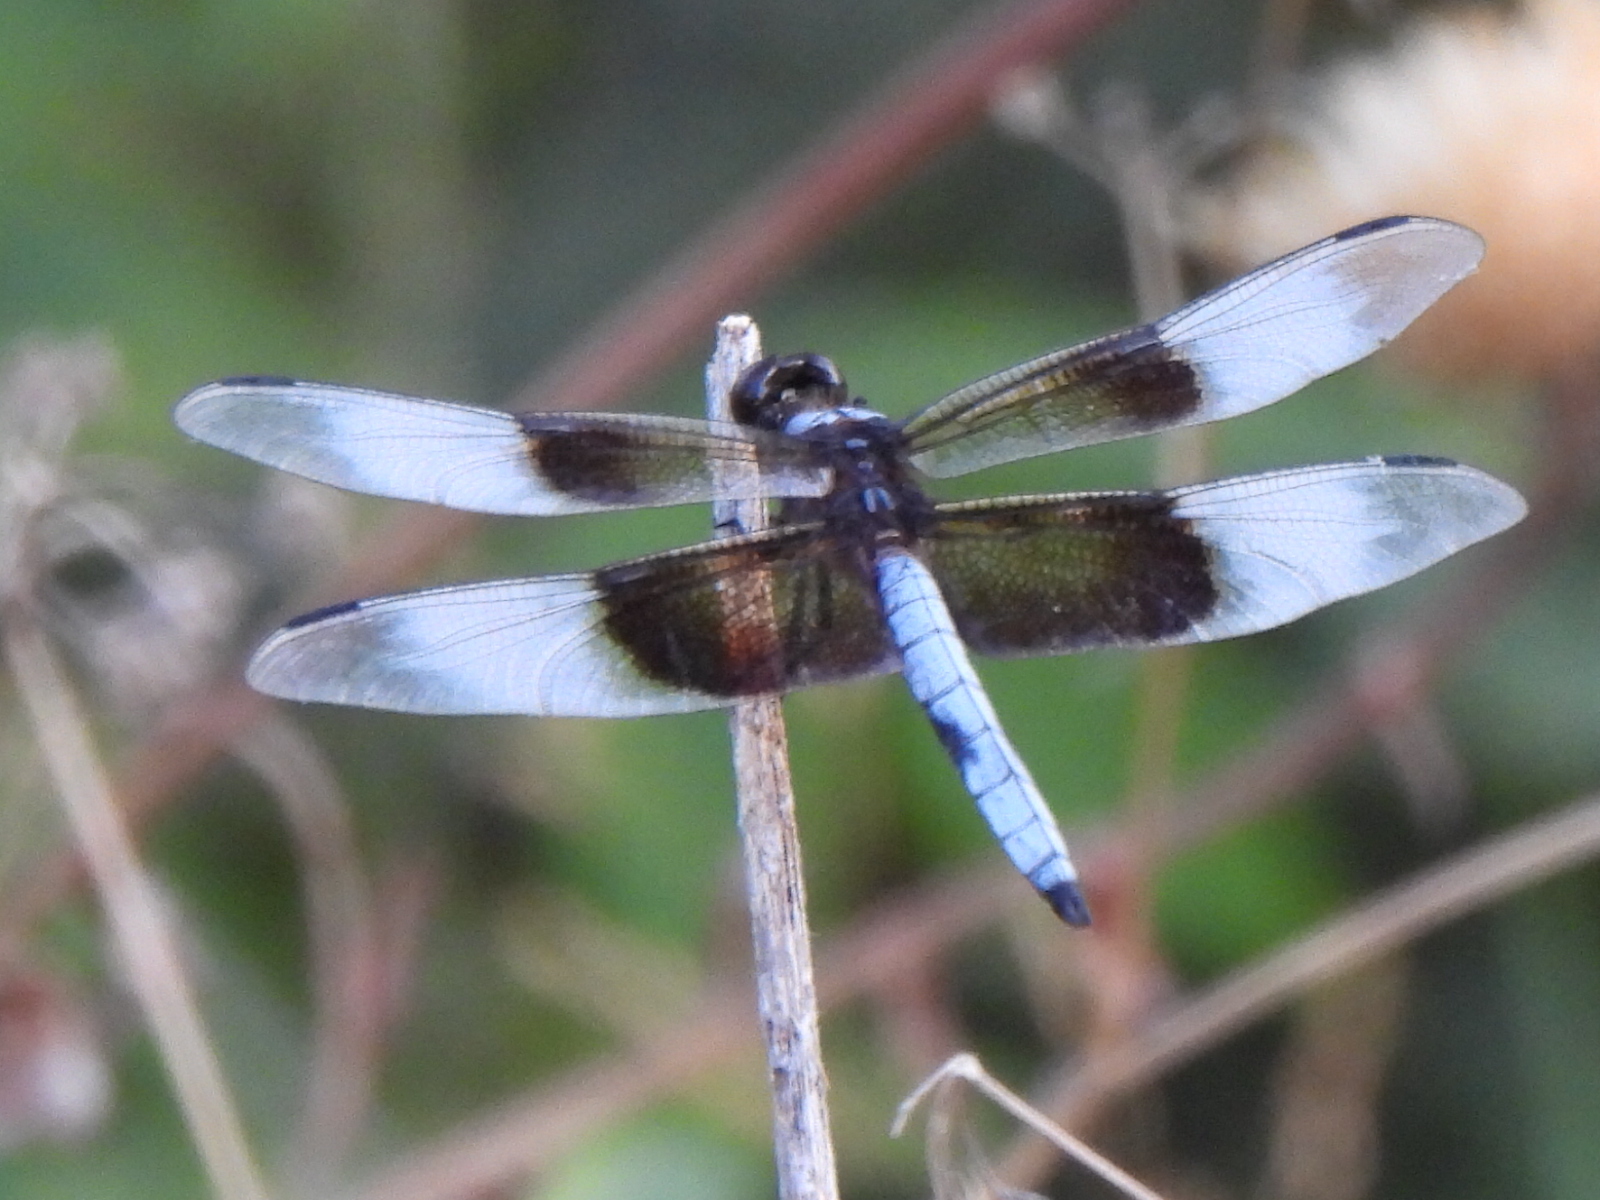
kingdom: Animalia
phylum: Arthropoda
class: Insecta
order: Odonata
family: Libellulidae
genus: Libellula
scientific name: Libellula luctuosa
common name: Widow skimmer
